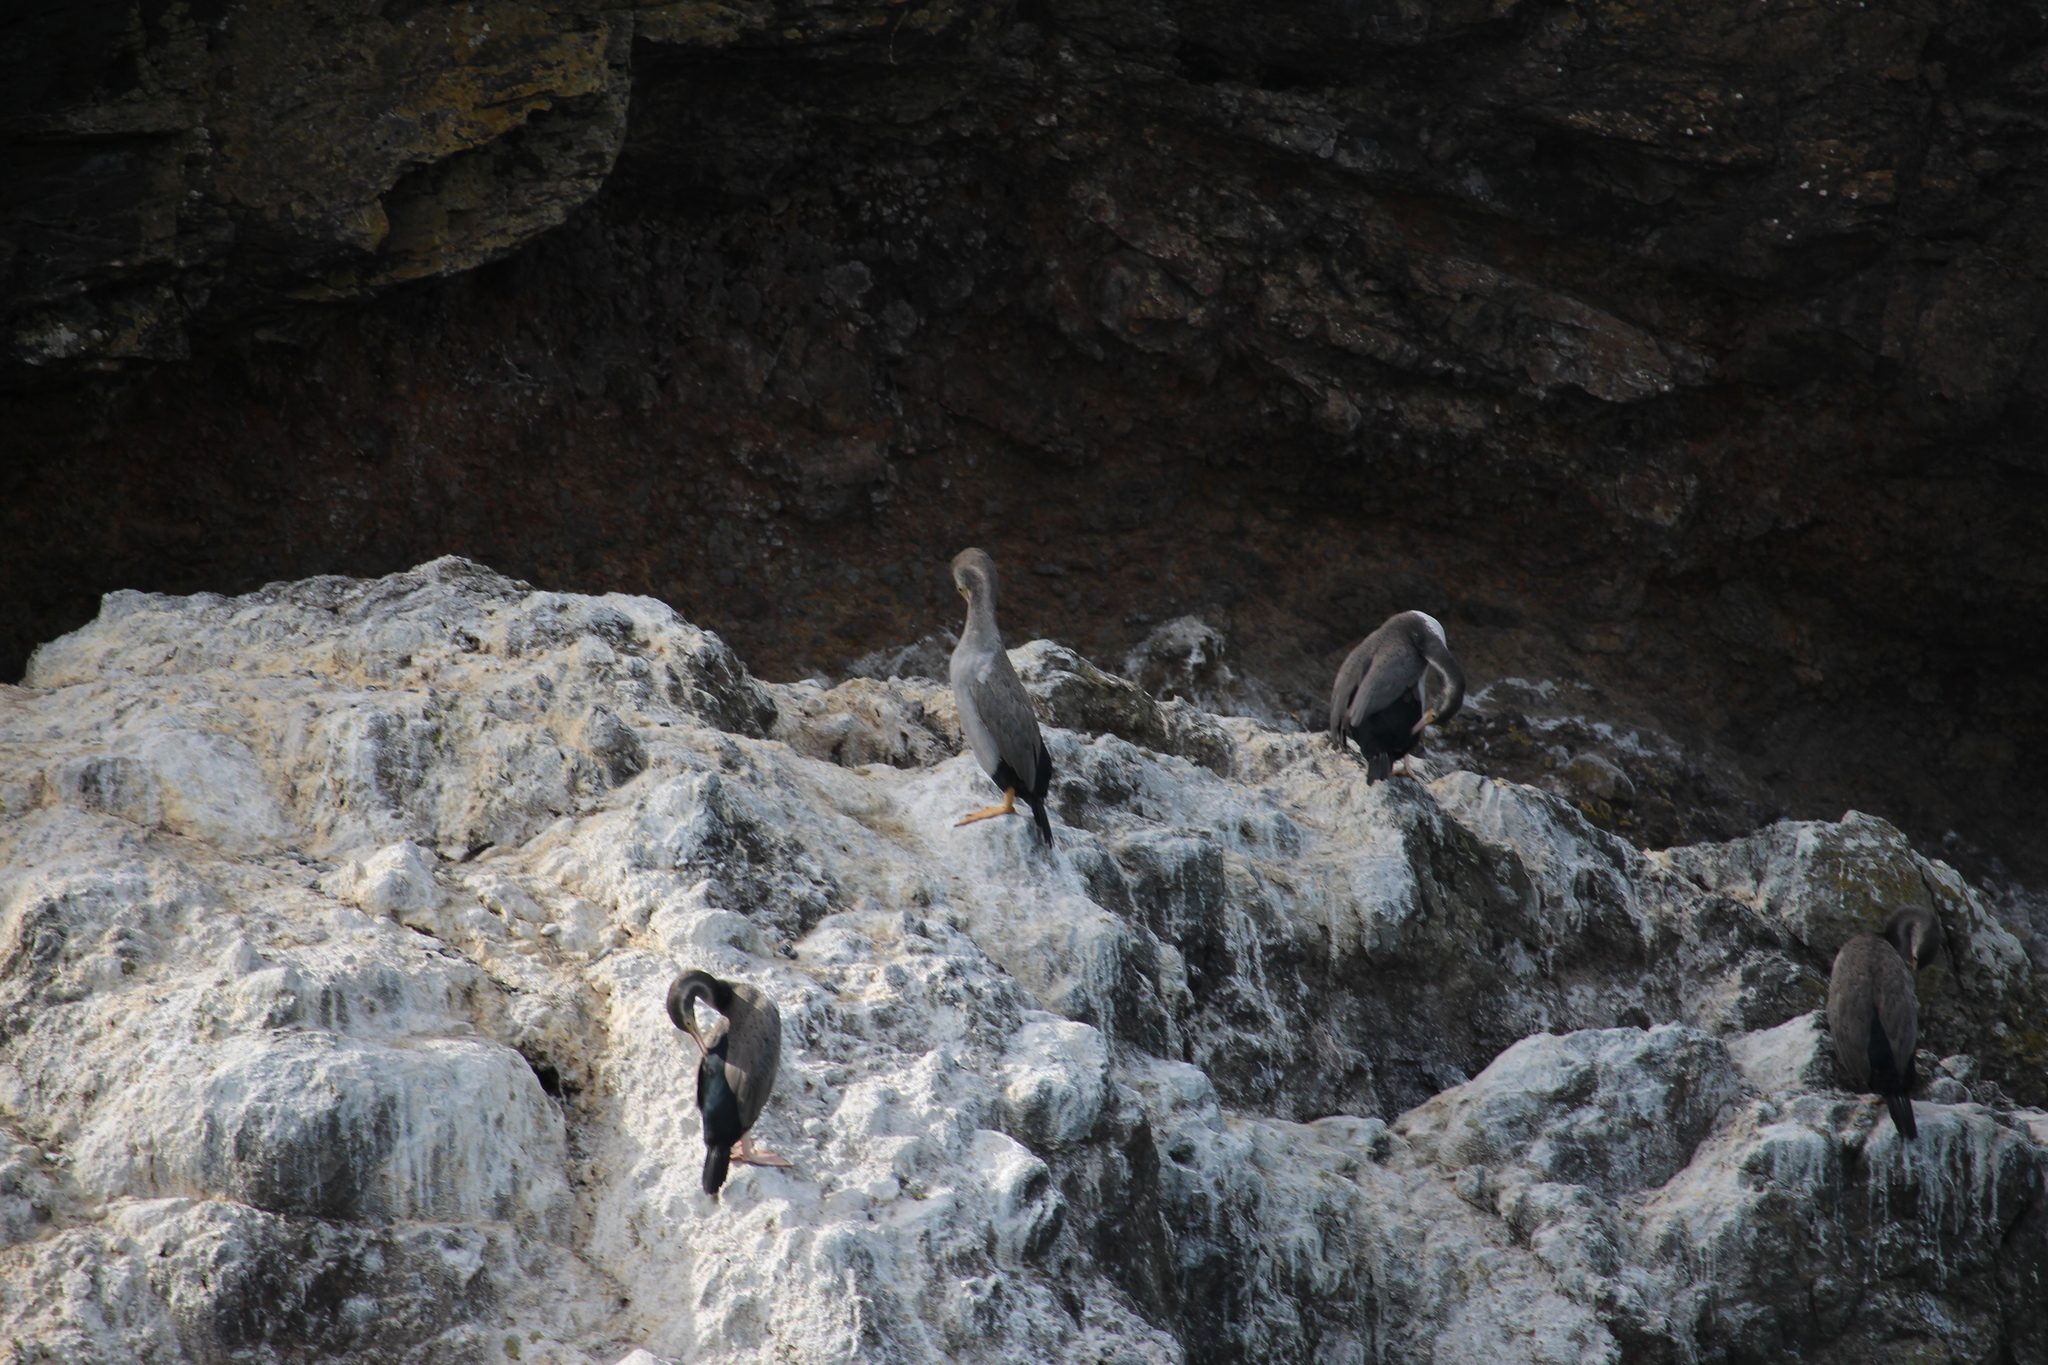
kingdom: Animalia
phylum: Chordata
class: Aves
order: Suliformes
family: Phalacrocoracidae
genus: Phalacrocorax
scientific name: Phalacrocorax punctatus
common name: Spotted shag
